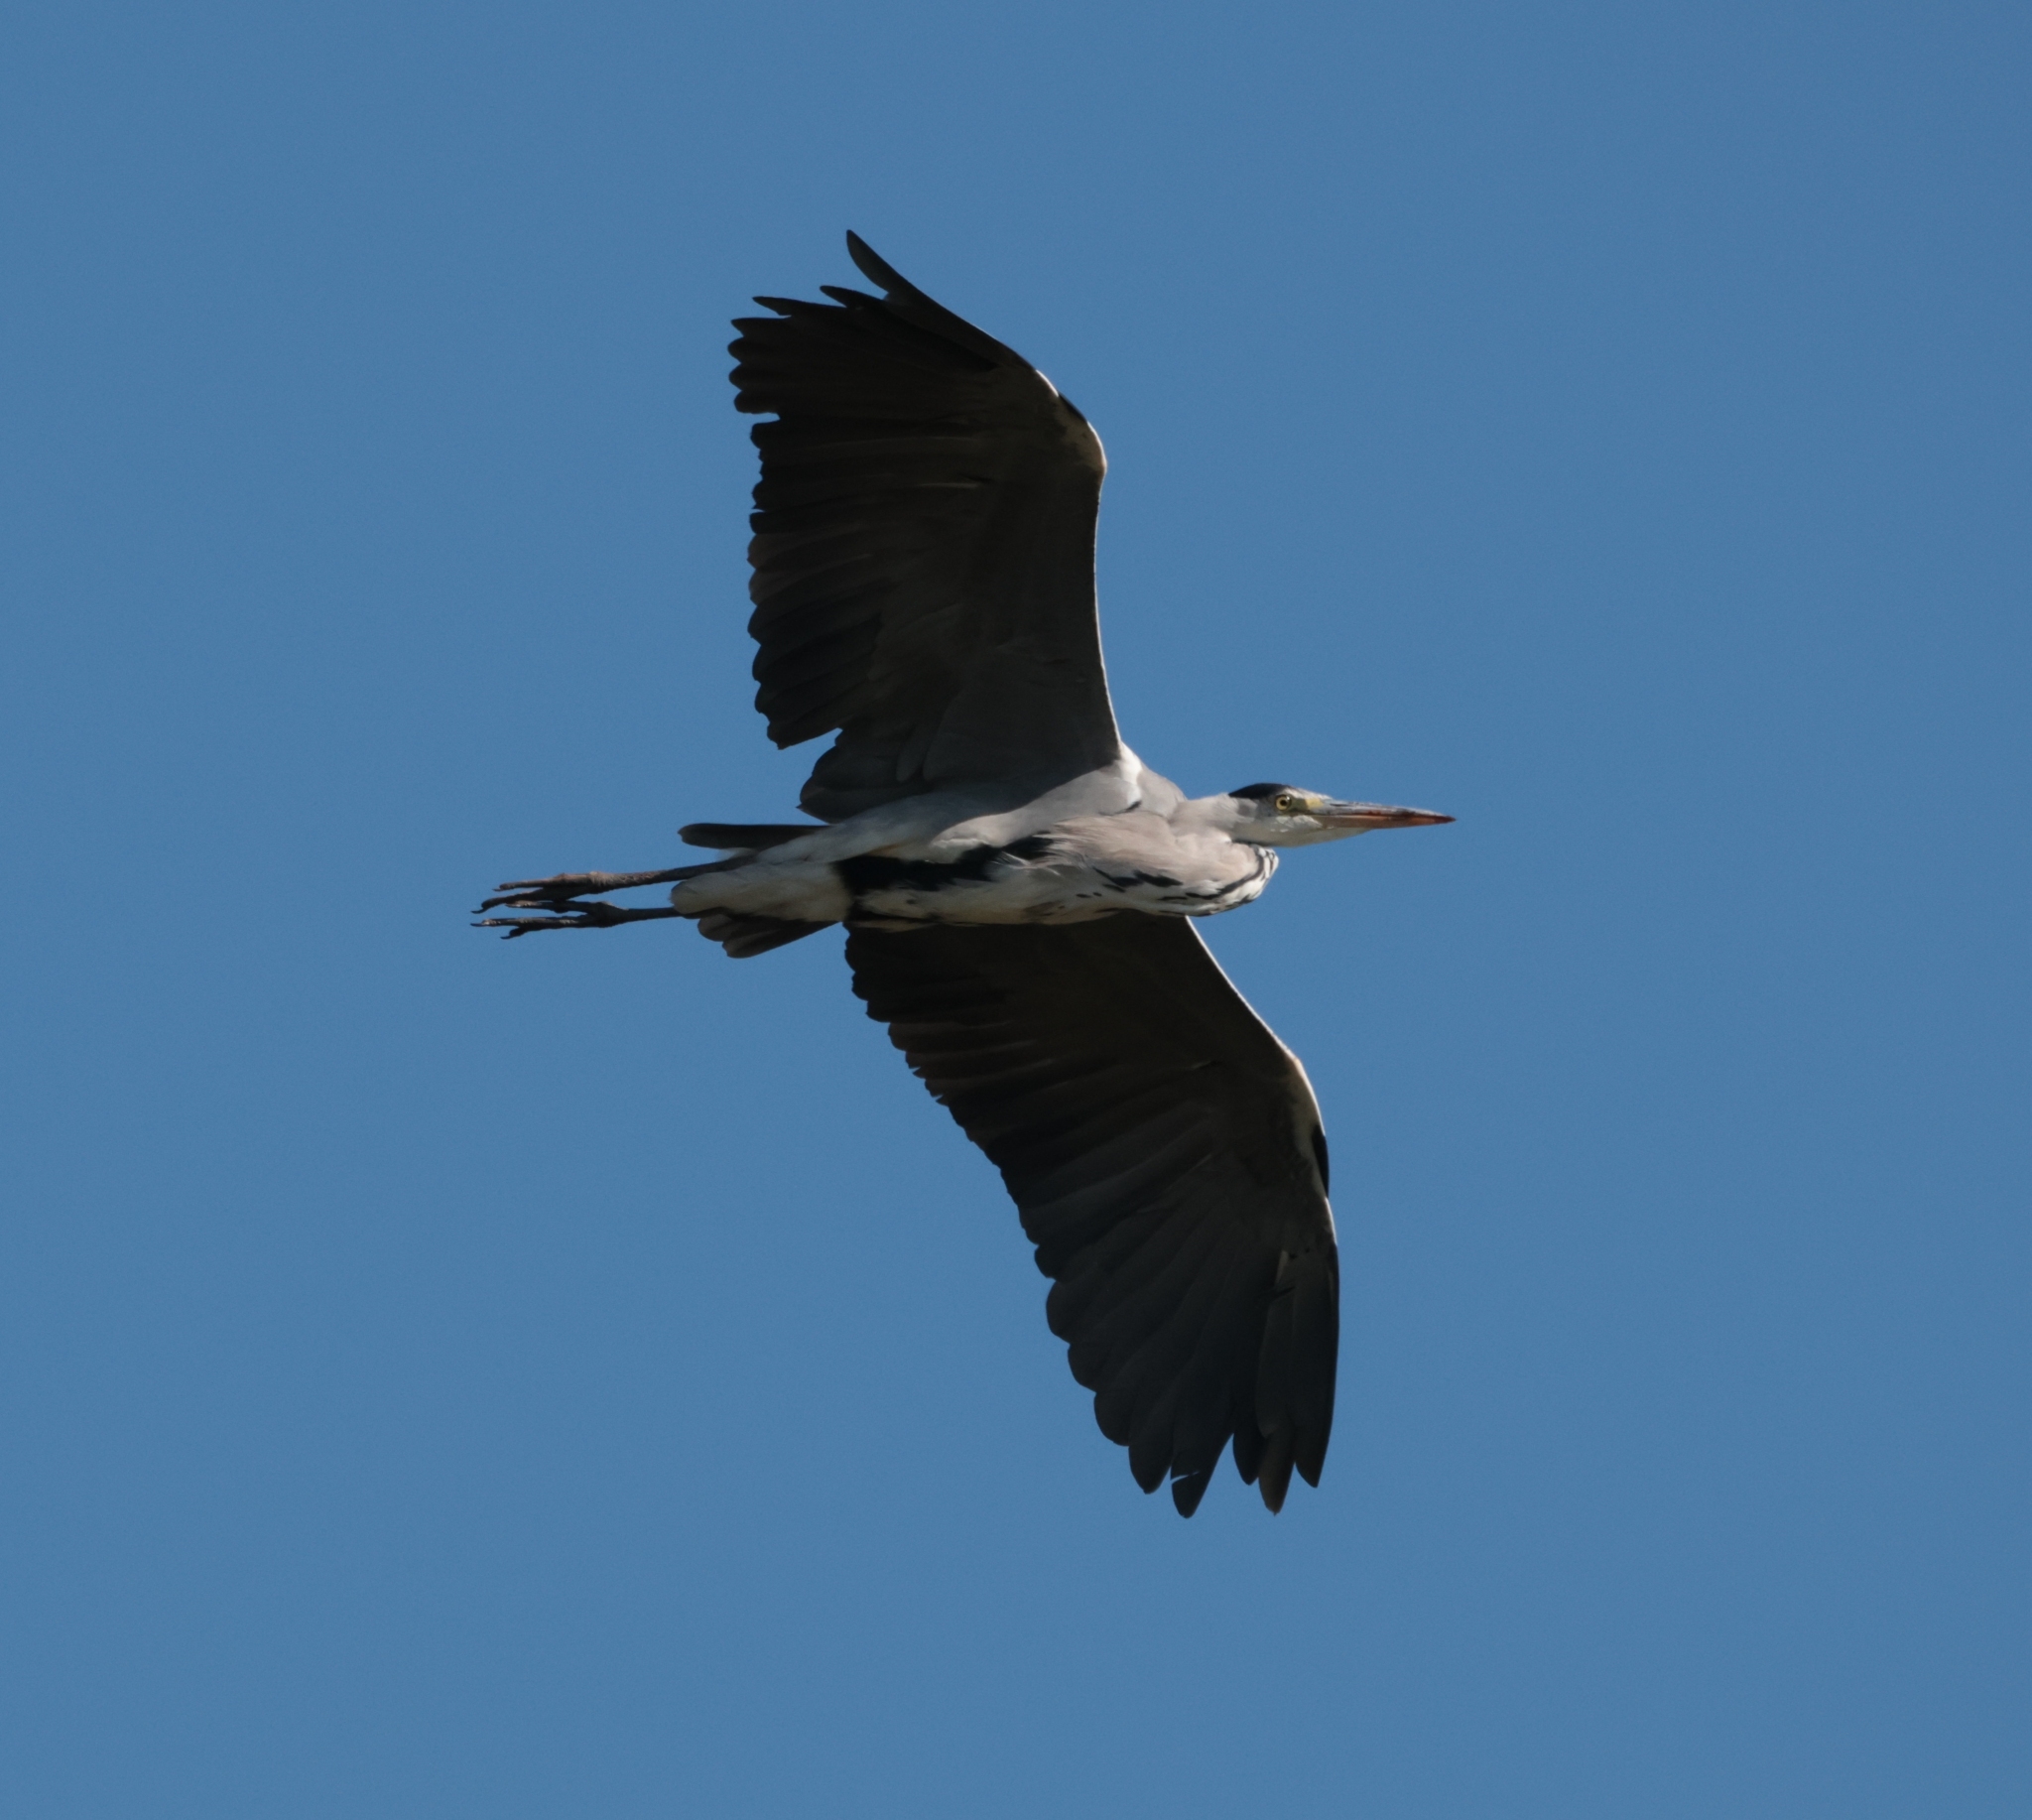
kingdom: Animalia
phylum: Chordata
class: Aves
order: Pelecaniformes
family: Ardeidae
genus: Ardea
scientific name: Ardea cinerea
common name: Grey heron
